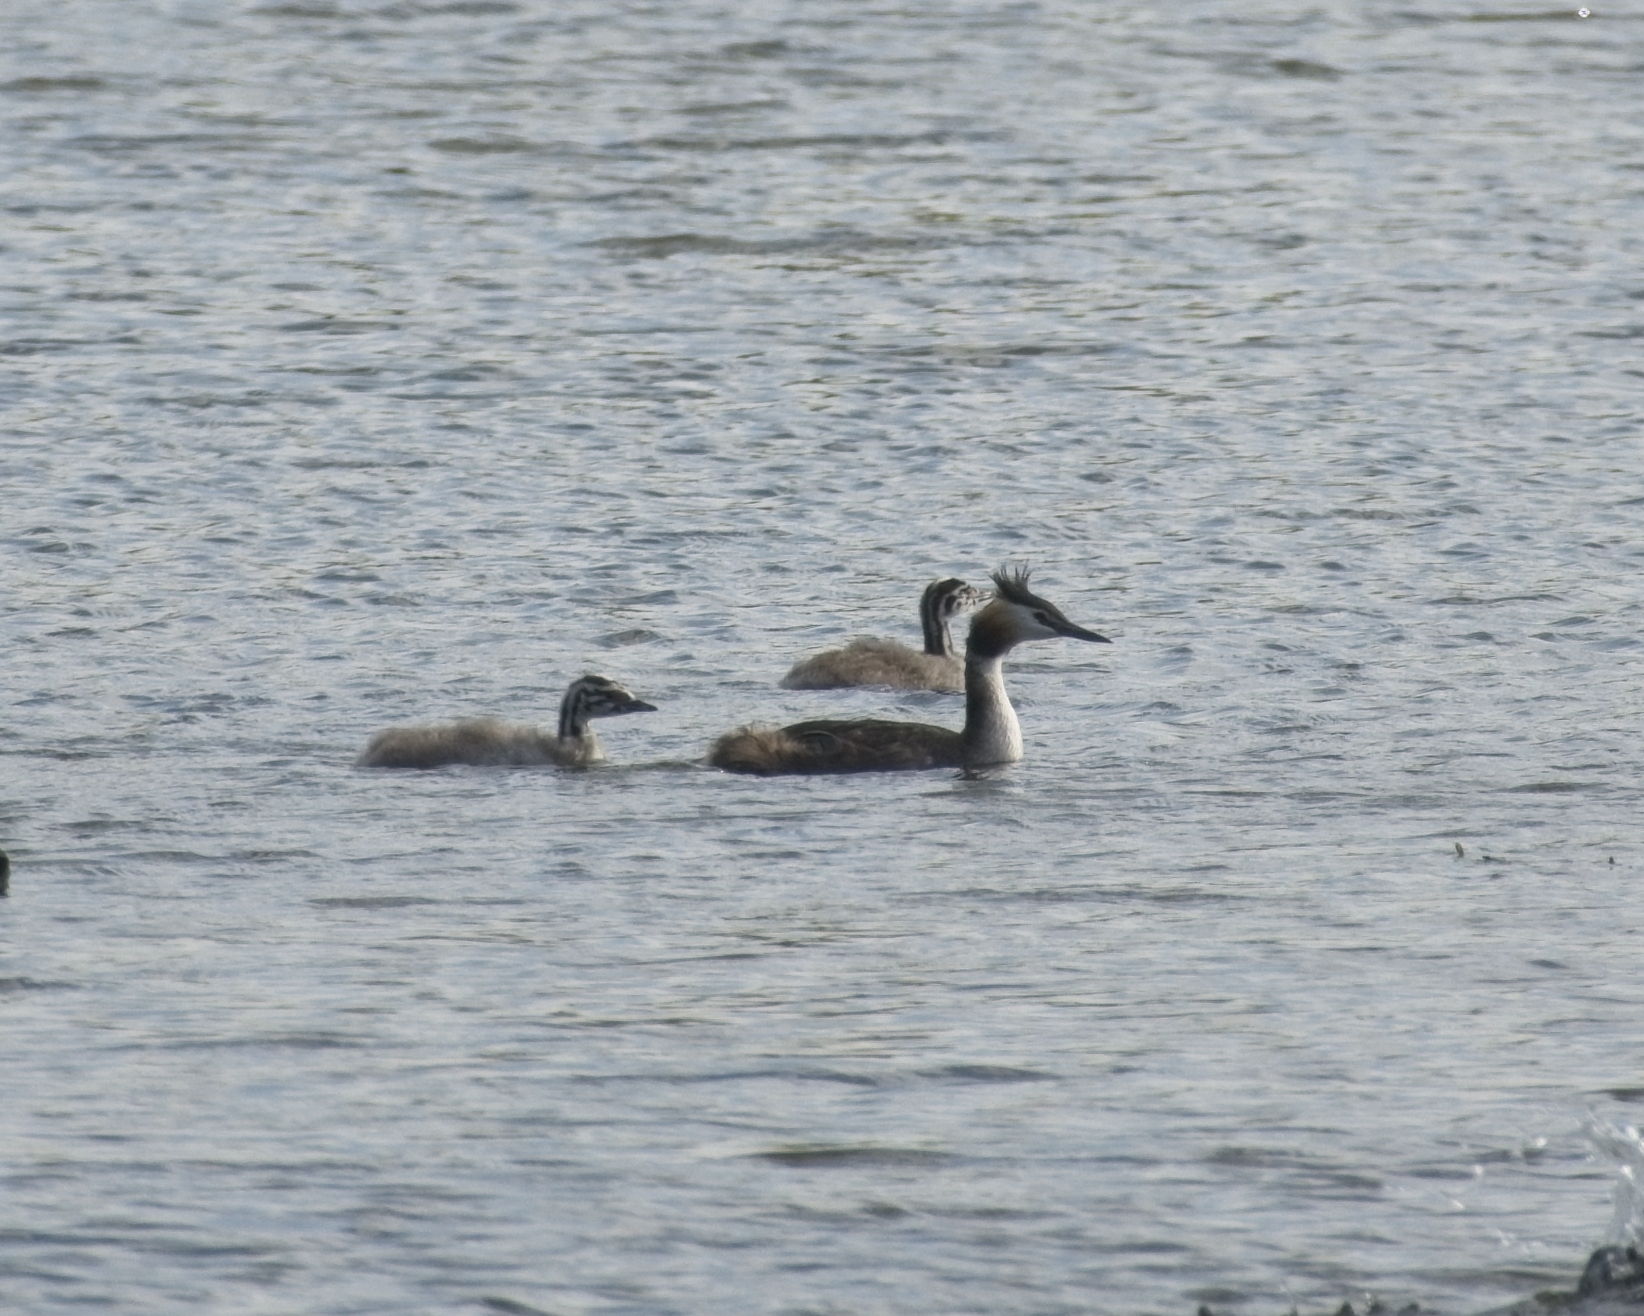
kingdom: Animalia
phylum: Chordata
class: Aves
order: Podicipediformes
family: Podicipedidae
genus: Podiceps
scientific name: Podiceps cristatus
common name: Great crested grebe
